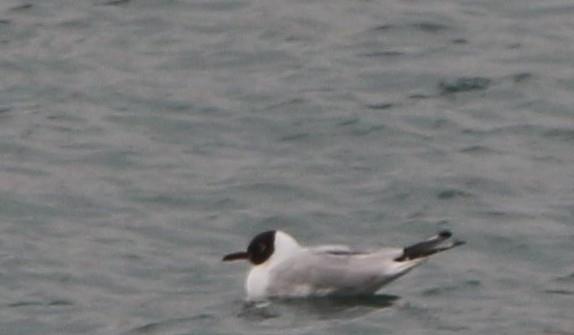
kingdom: Animalia
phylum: Chordata
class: Aves
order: Charadriiformes
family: Laridae
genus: Chroicocephalus
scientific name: Chroicocephalus ridibundus
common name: Black-headed gull
